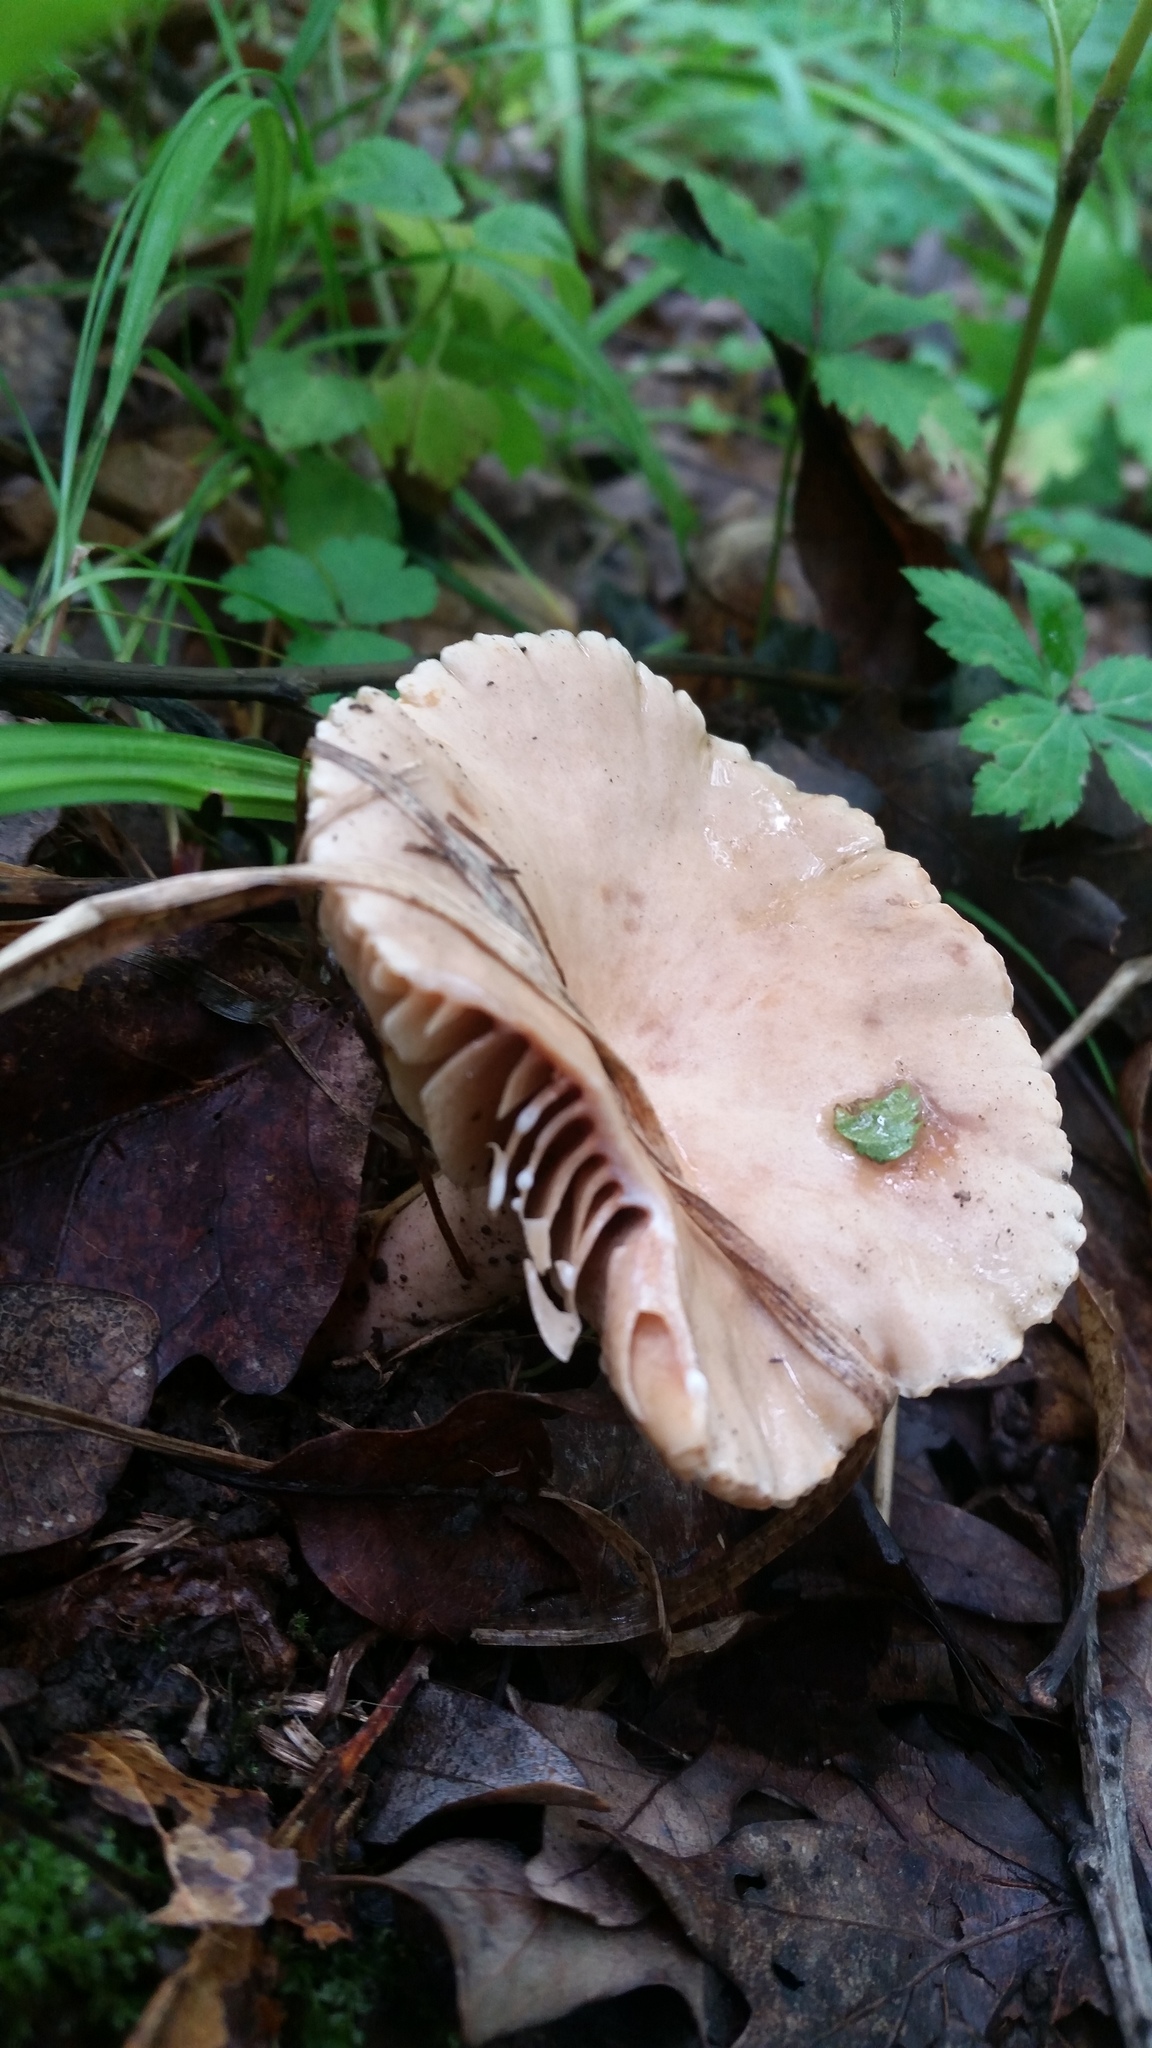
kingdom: Fungi
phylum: Basidiomycota
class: Agaricomycetes
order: Russulales
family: Russulaceae
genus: Lactarius
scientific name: Lactarius subplinthogalus
